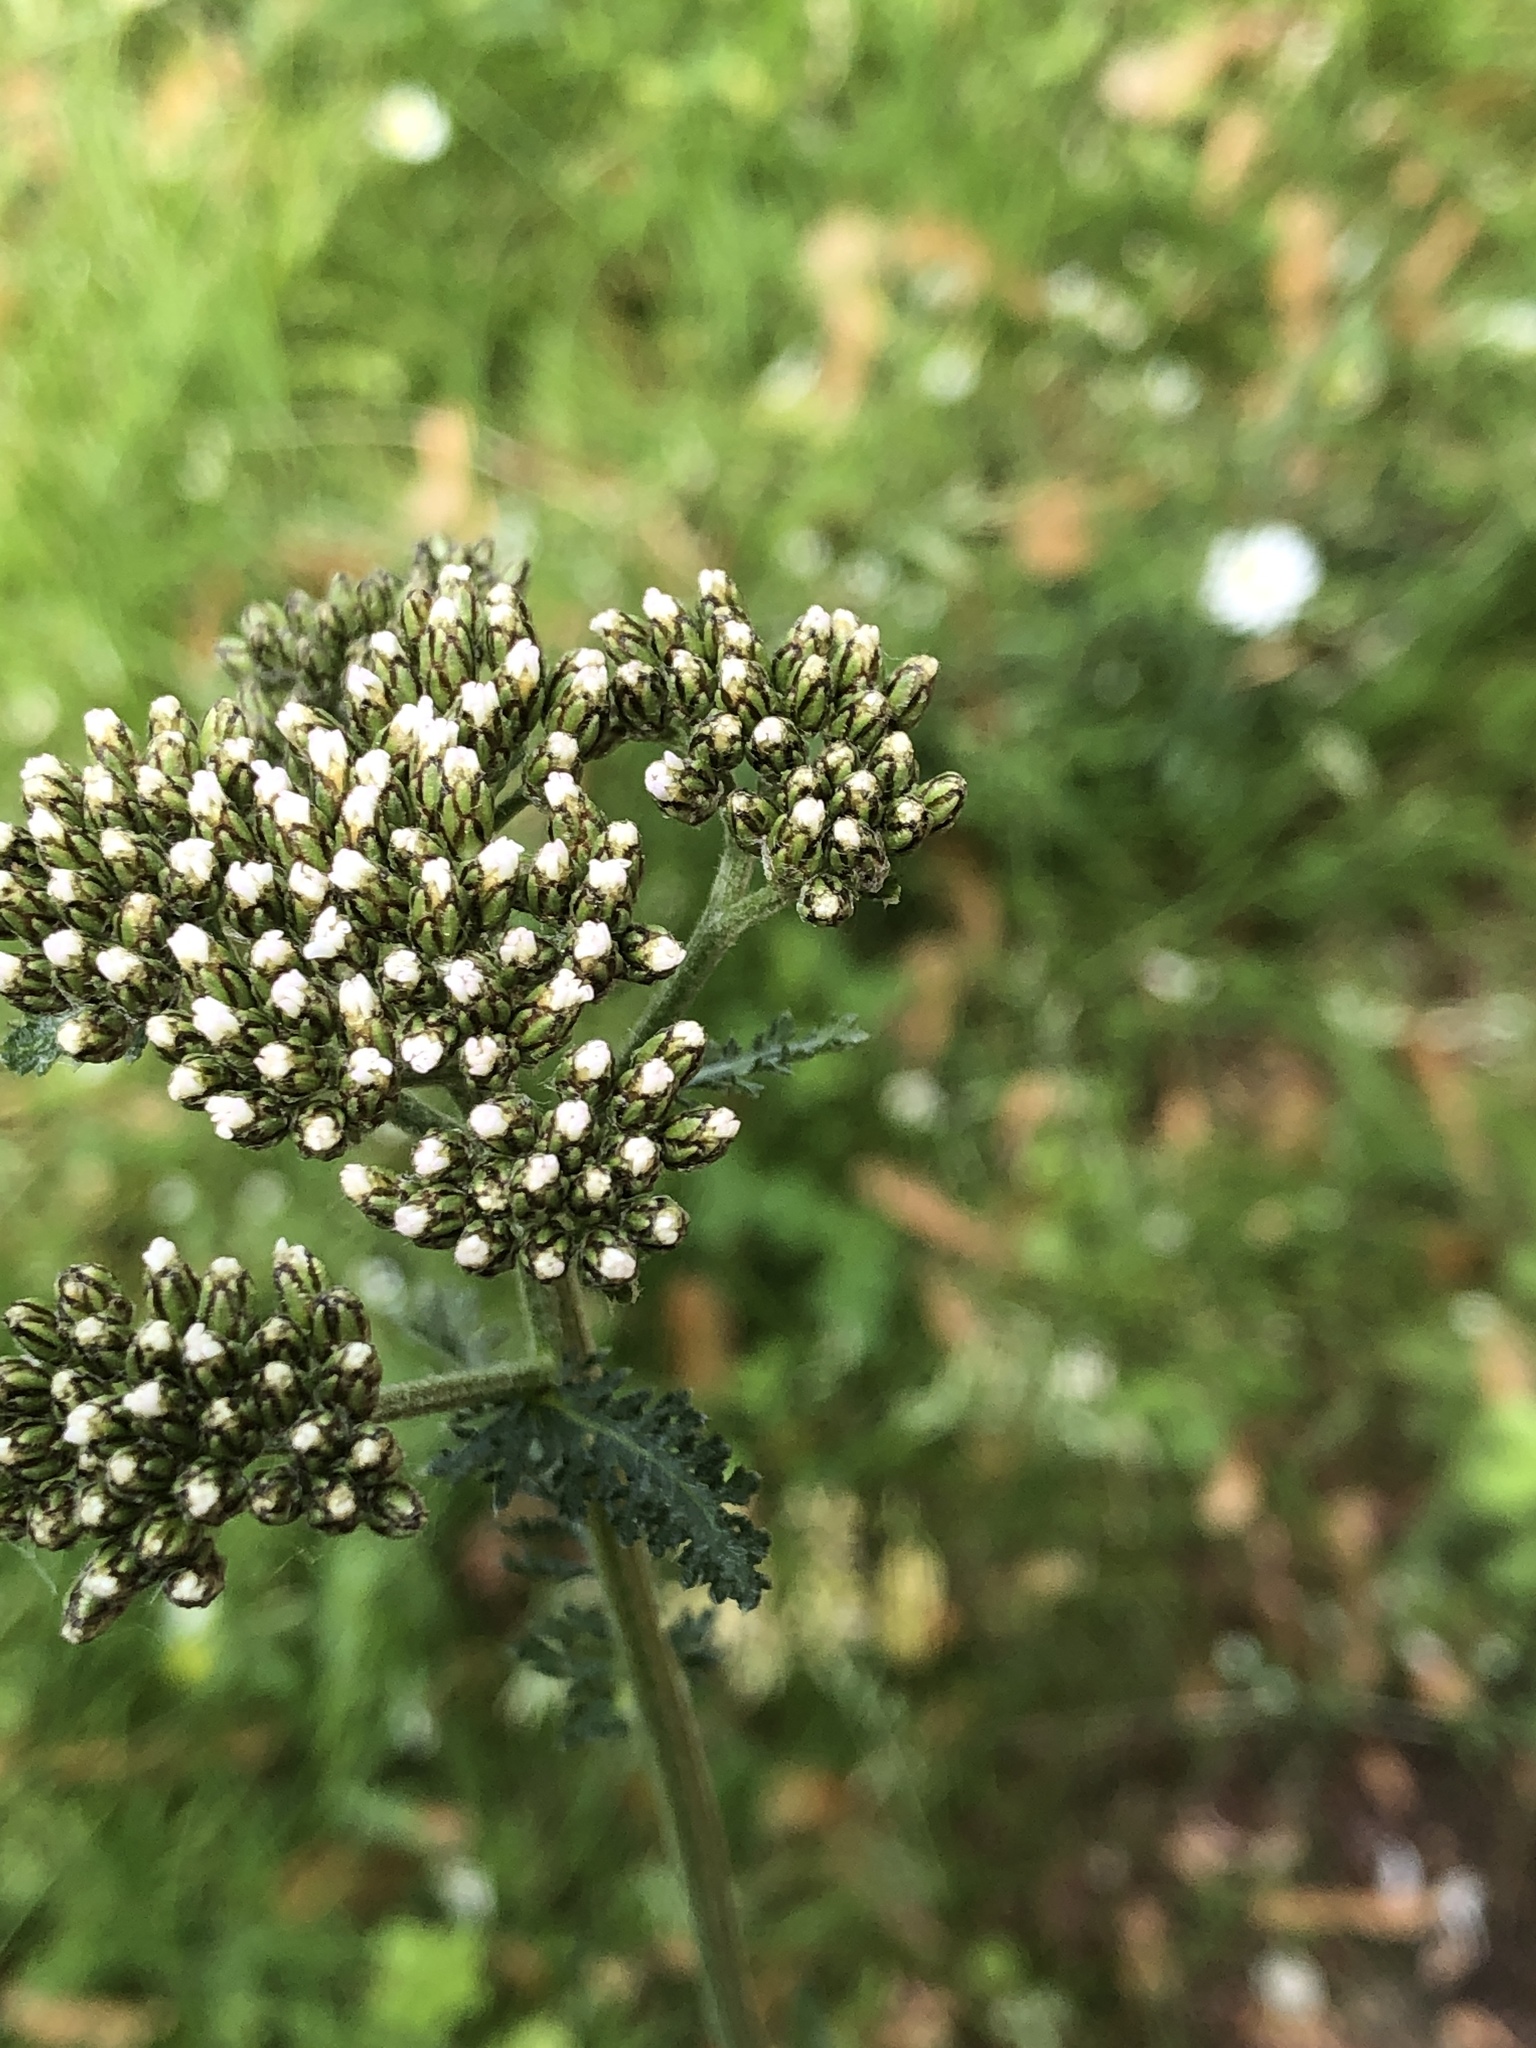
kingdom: Plantae
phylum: Tracheophyta
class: Magnoliopsida
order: Asterales
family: Asteraceae
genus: Achillea
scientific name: Achillea millefolium
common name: Yarrow
